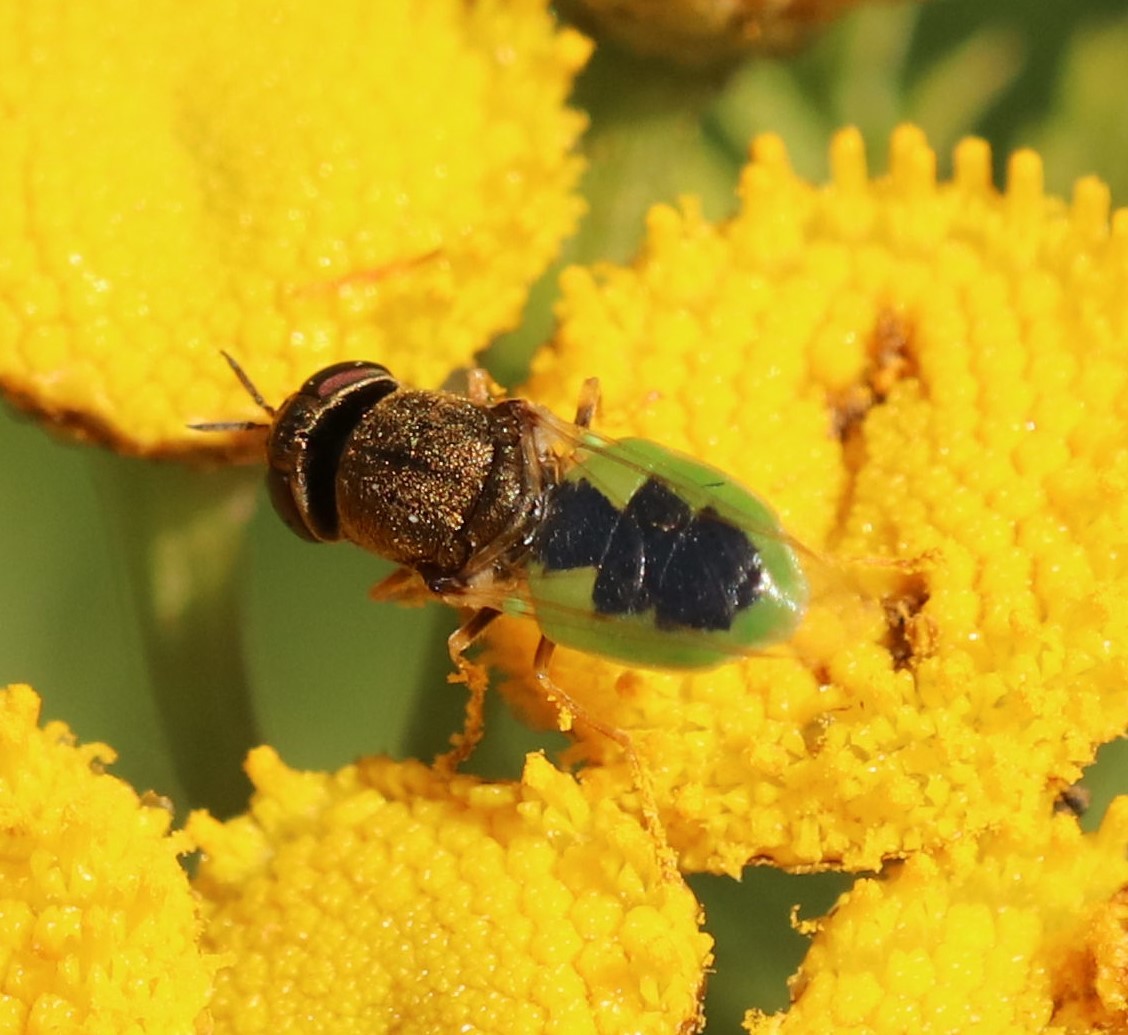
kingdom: Animalia
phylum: Arthropoda
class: Insecta
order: Diptera
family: Stratiomyidae
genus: Odontomyia
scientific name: Odontomyia angulata
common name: Orange-horned green colonel
